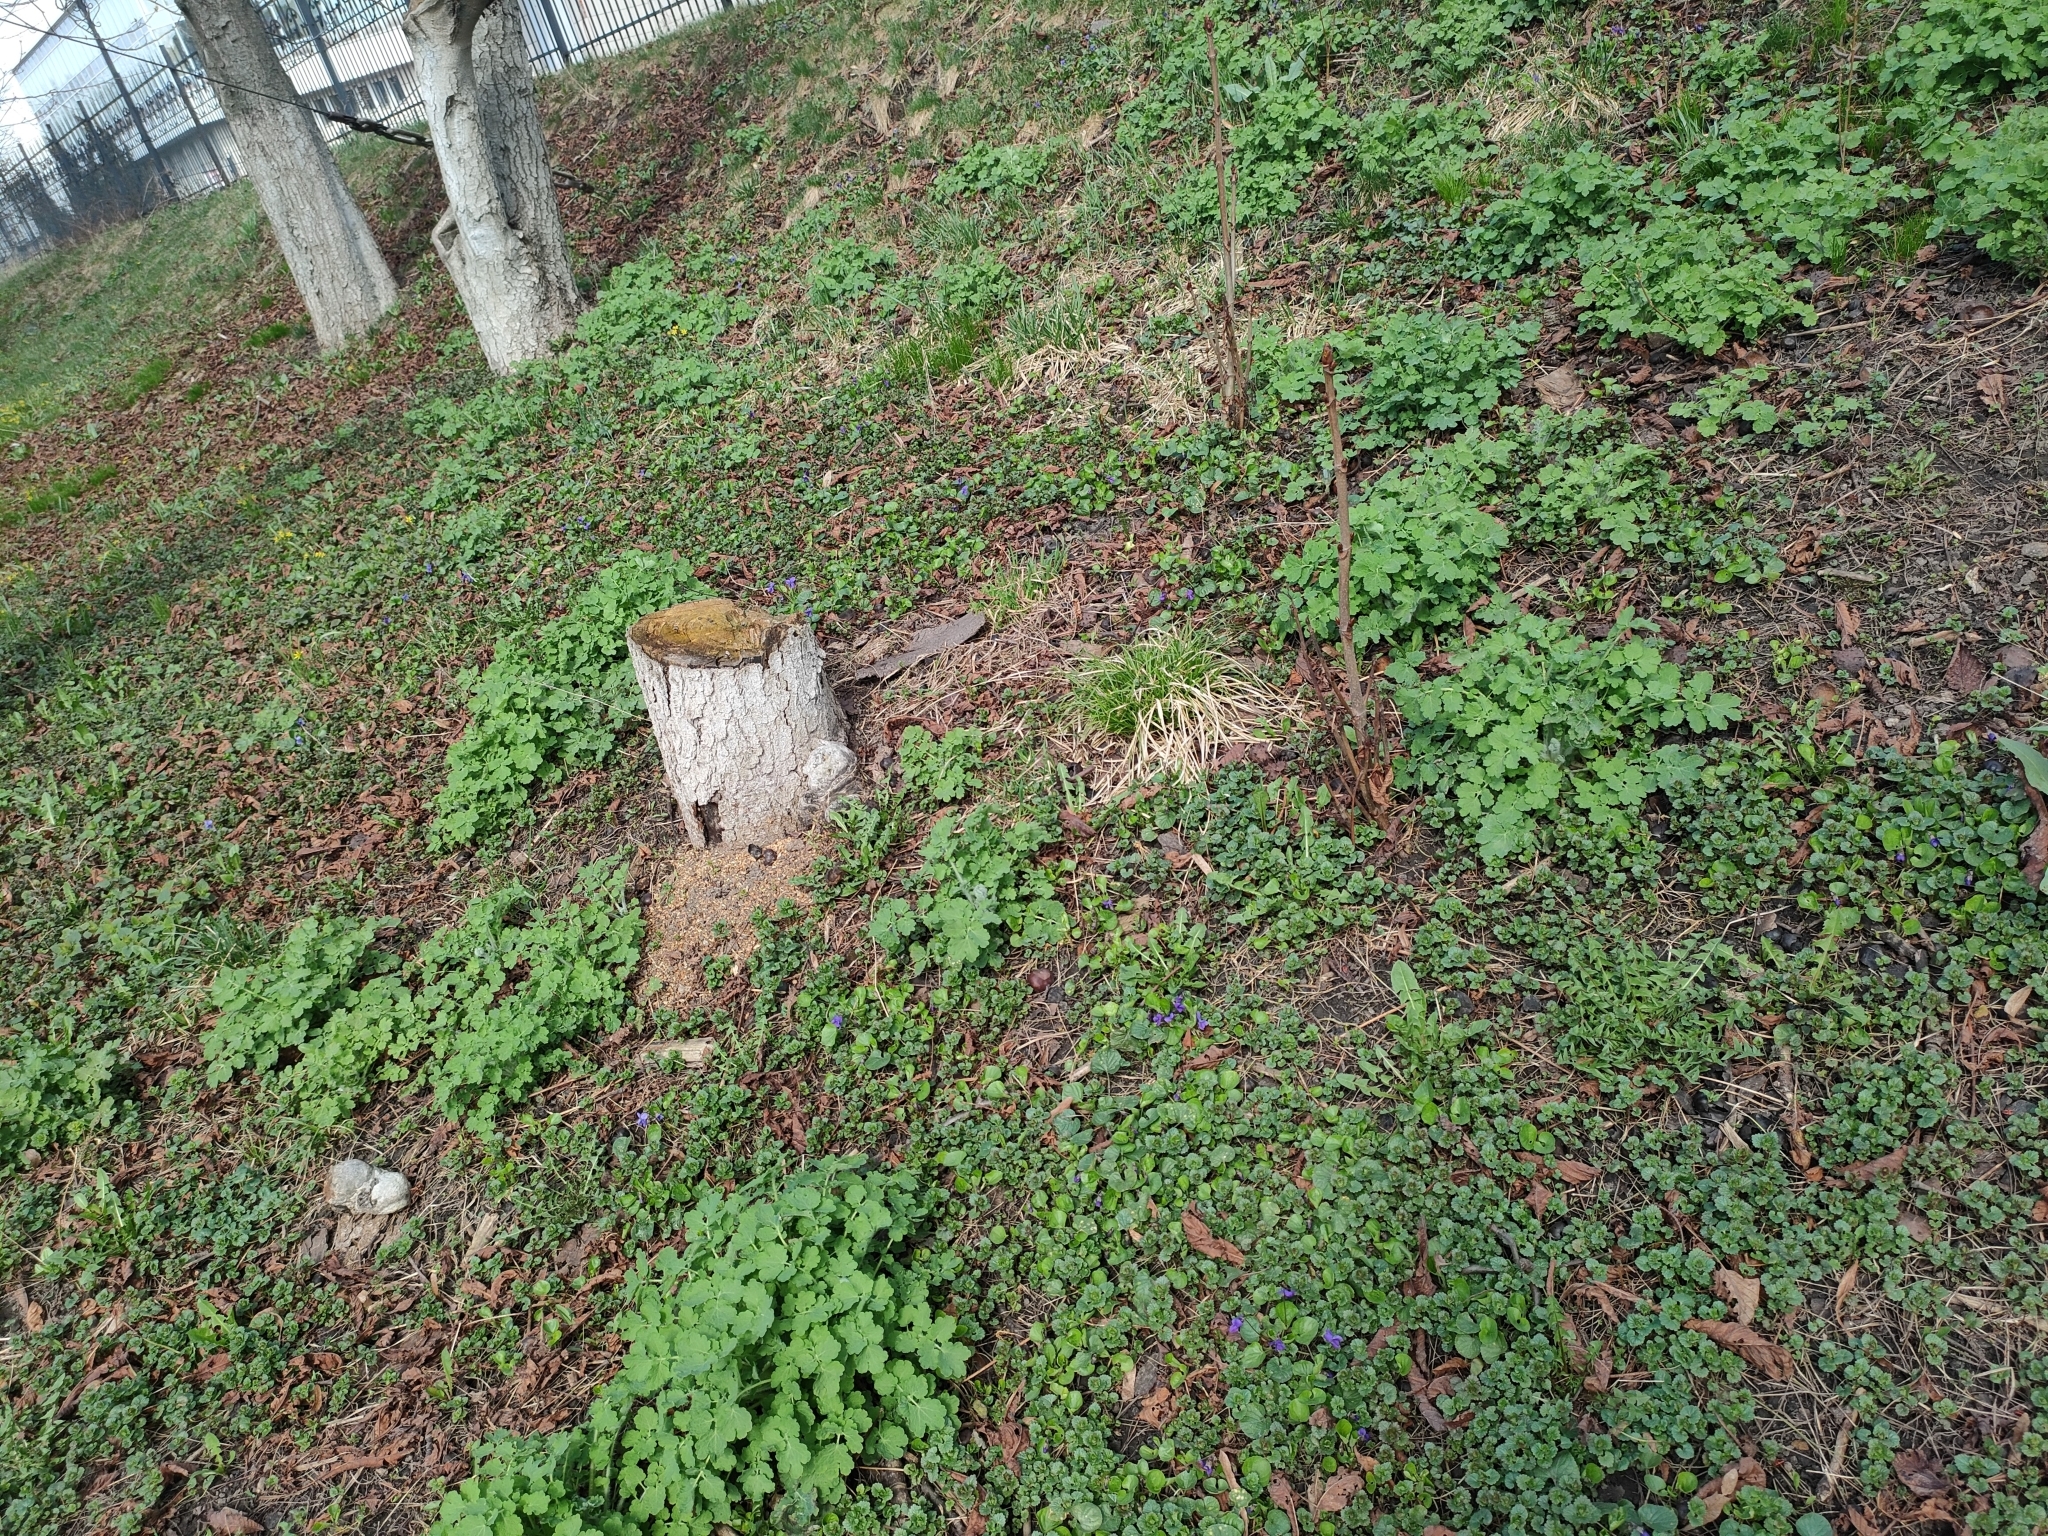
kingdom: Plantae
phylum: Tracheophyta
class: Magnoliopsida
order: Malpighiales
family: Violaceae
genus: Viola
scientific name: Viola odorata
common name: Sweet violet
